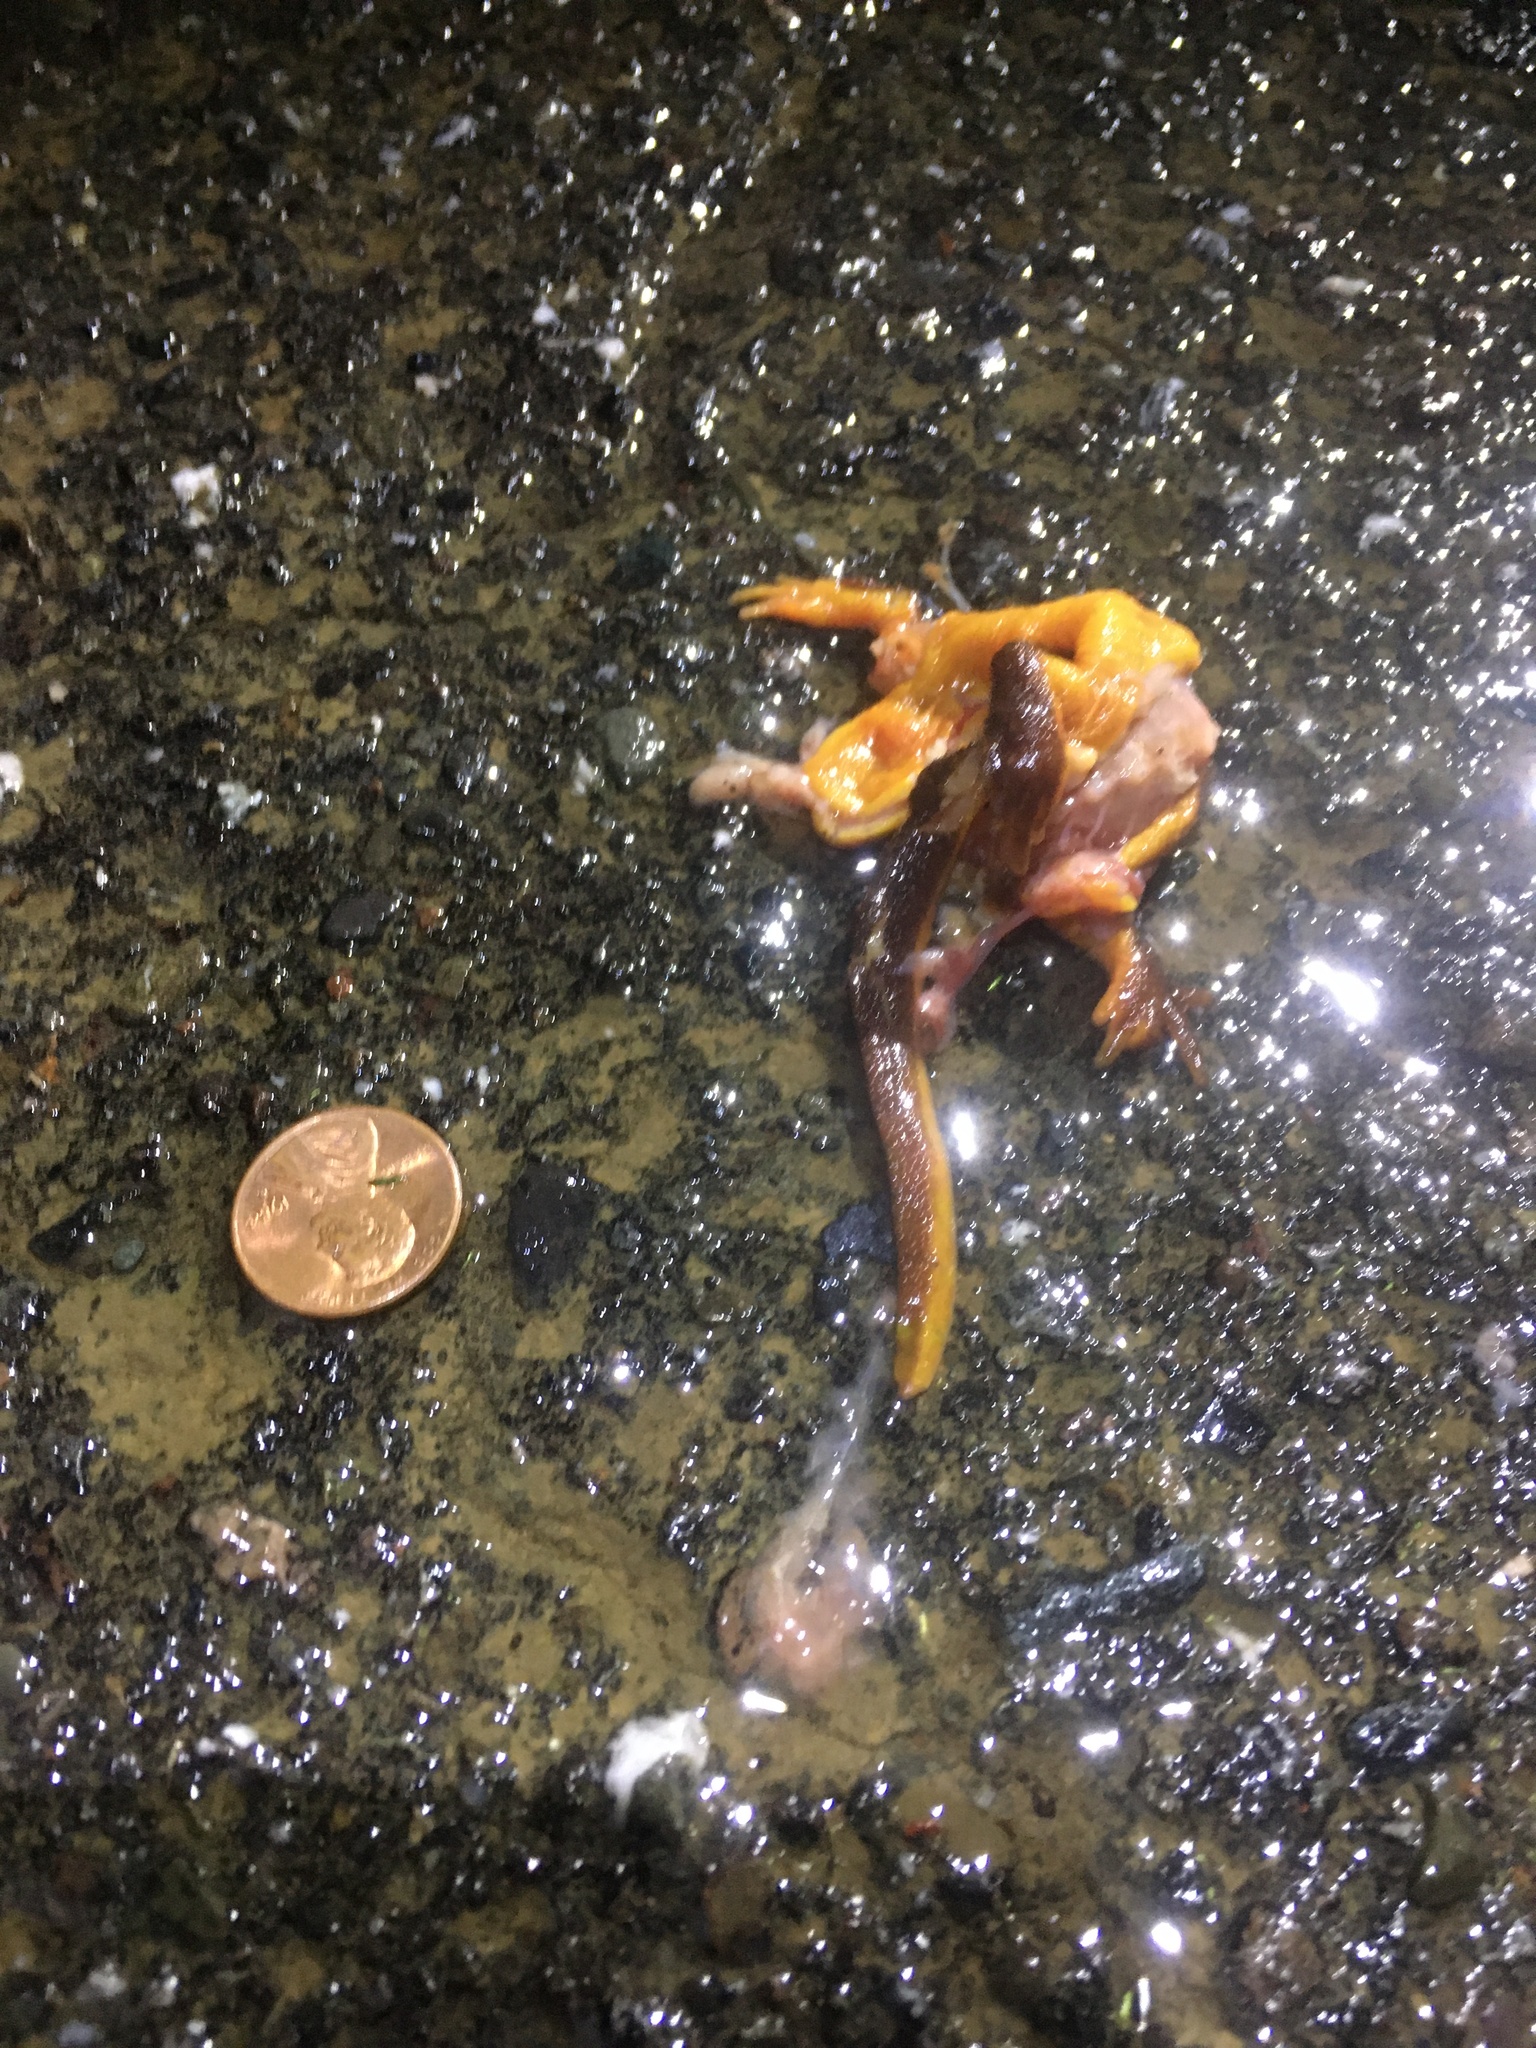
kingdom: Animalia
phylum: Chordata
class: Amphibia
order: Caudata
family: Salamandridae
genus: Taricha
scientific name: Taricha
